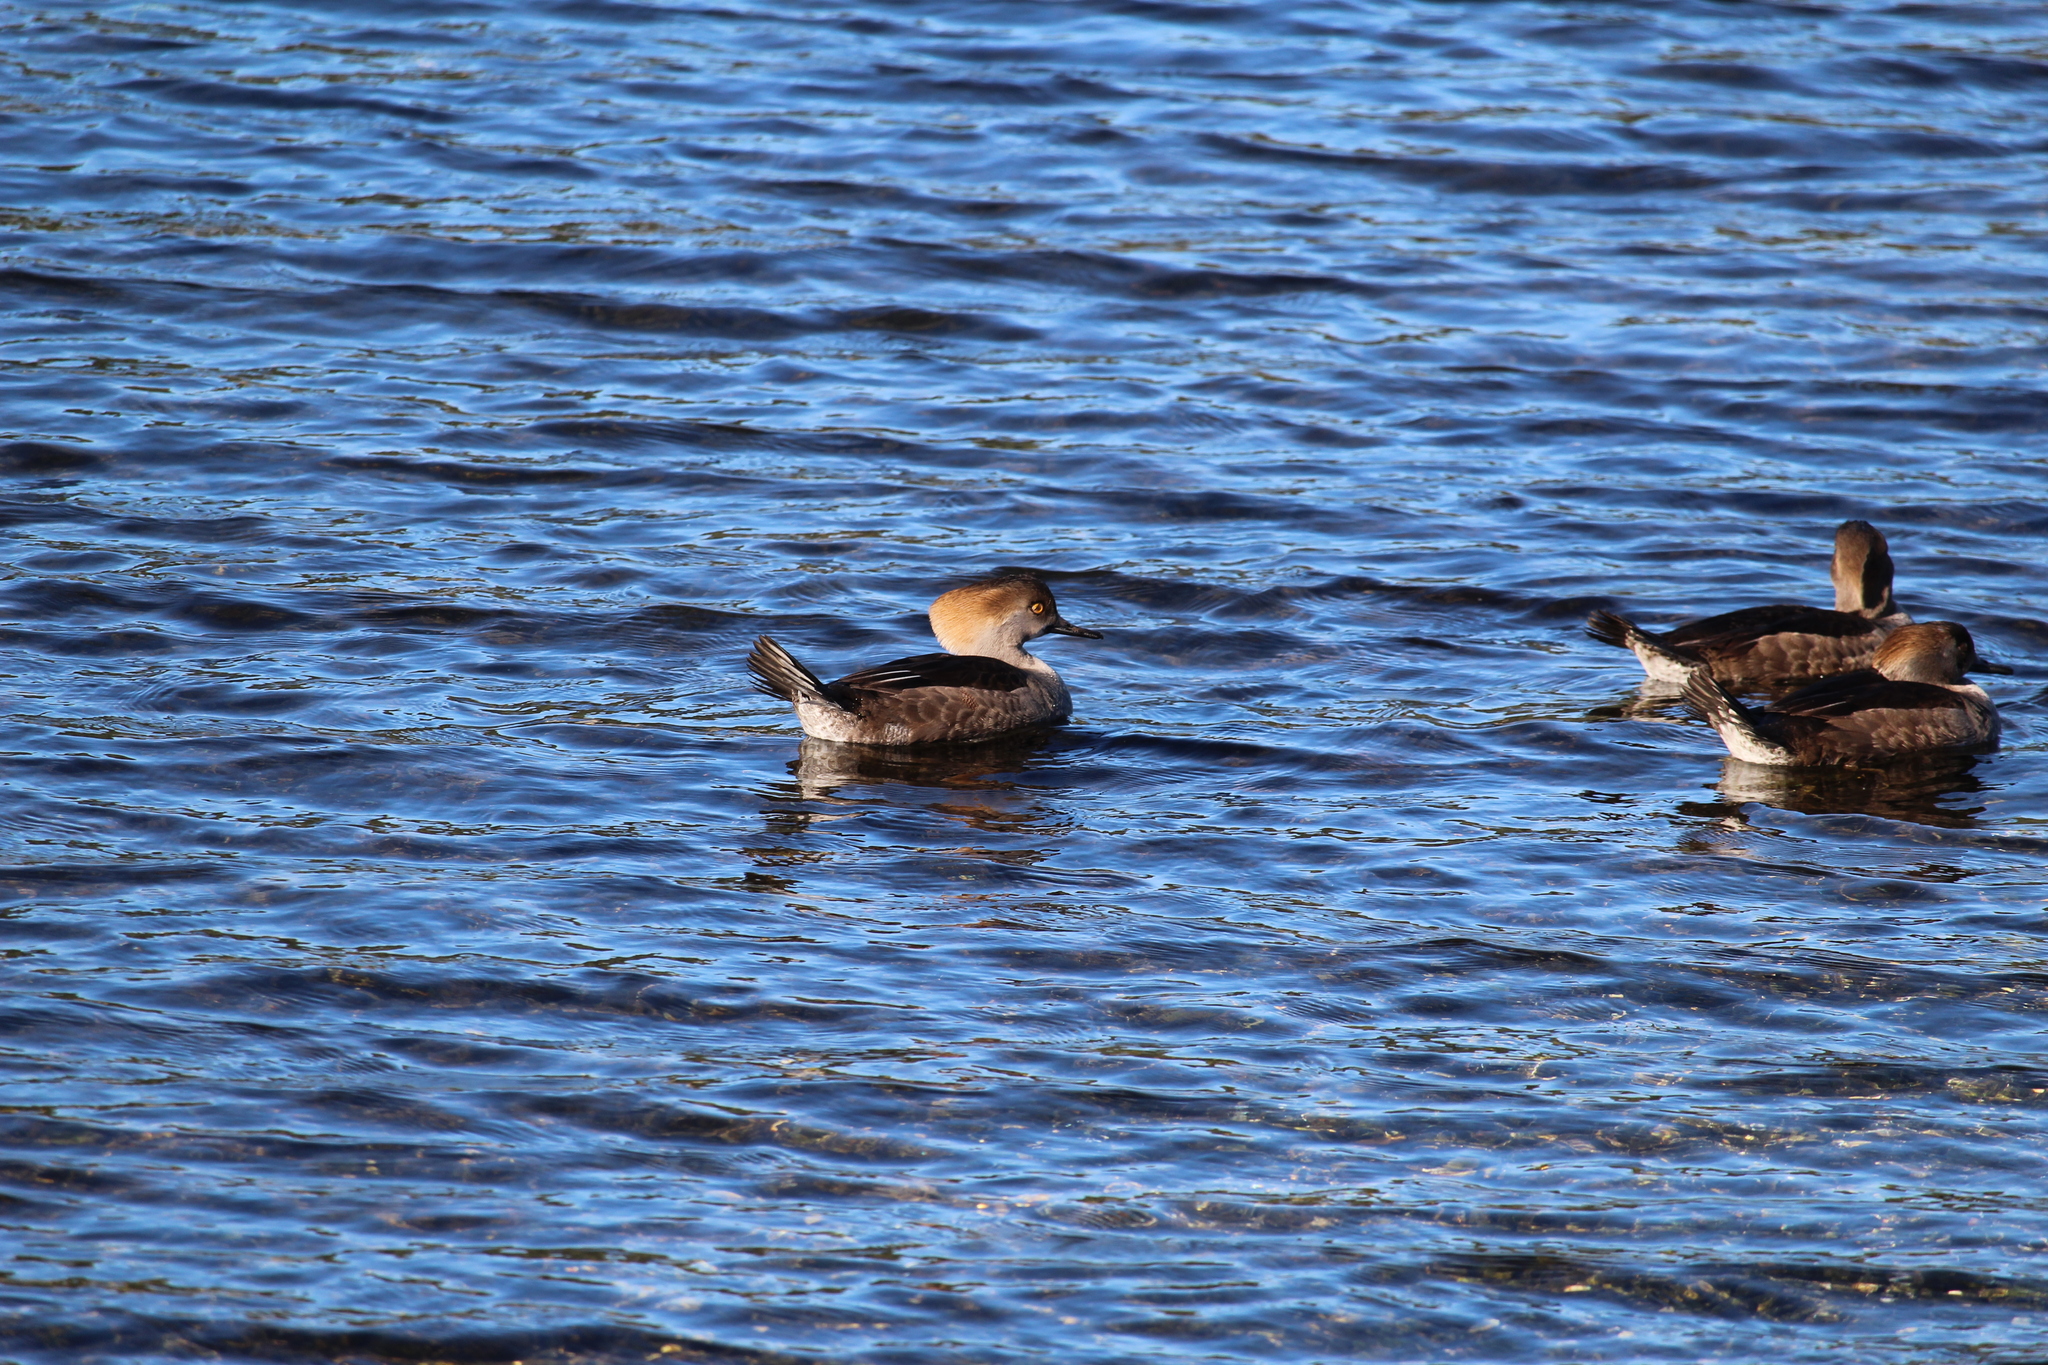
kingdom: Animalia
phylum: Chordata
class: Aves
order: Anseriformes
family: Anatidae
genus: Lophodytes
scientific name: Lophodytes cucullatus
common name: Hooded merganser
